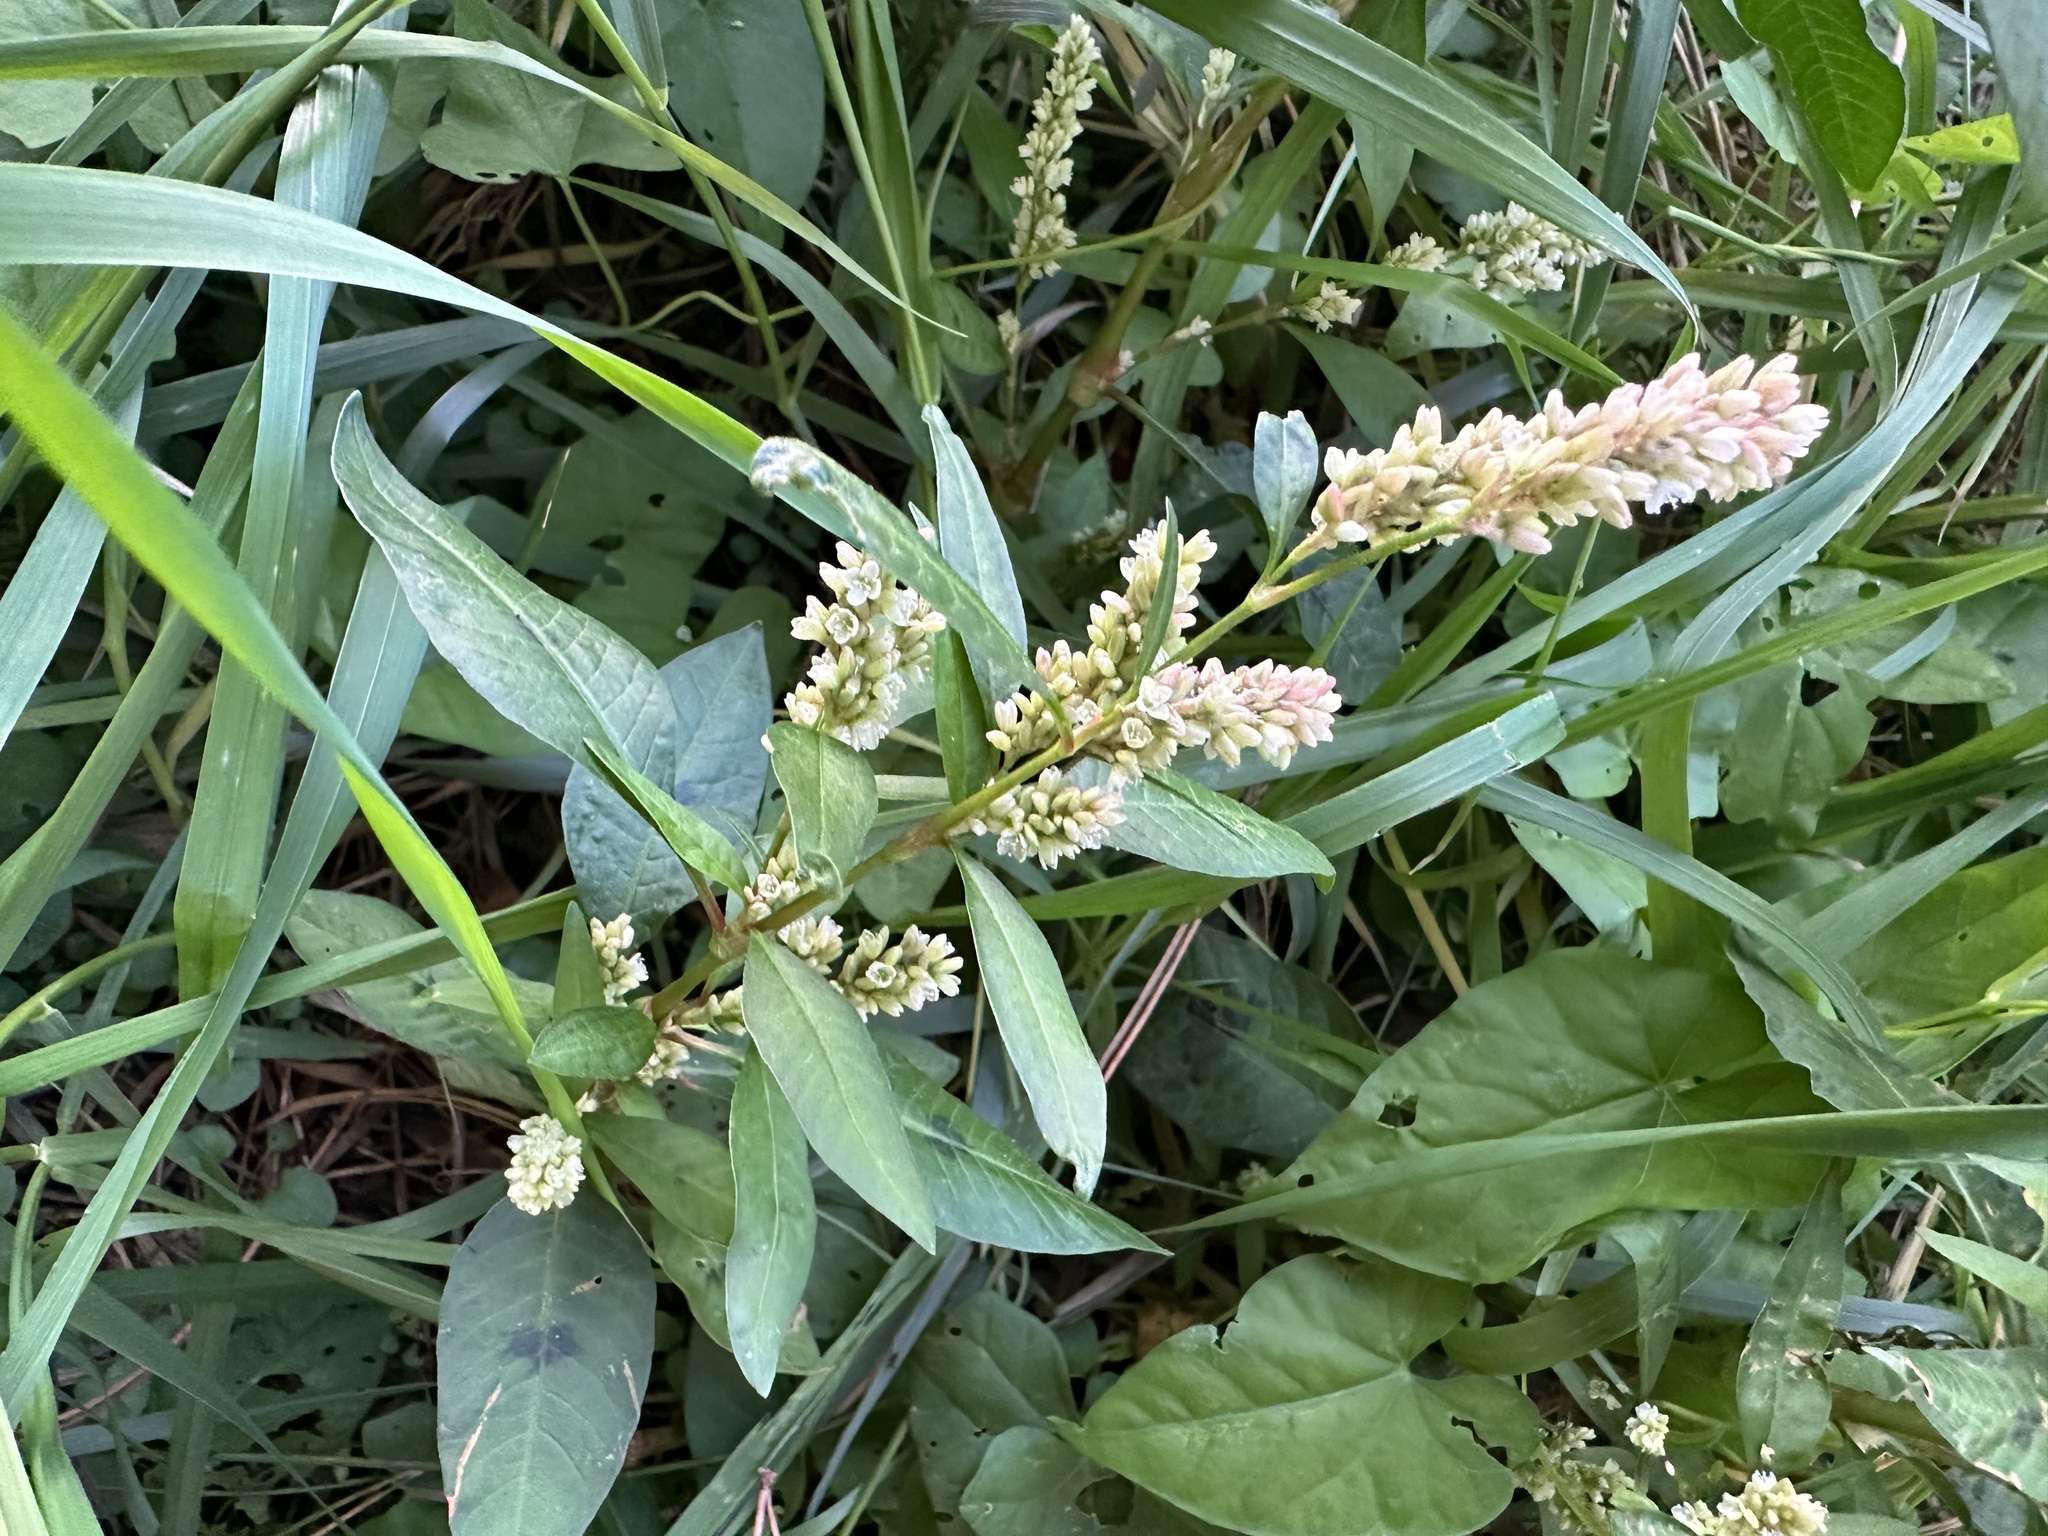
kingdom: Plantae
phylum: Tracheophyta
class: Magnoliopsida
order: Caryophyllales
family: Polygonaceae
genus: Persicaria
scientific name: Persicaria lapathifolia
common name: Curlytop knotweed
